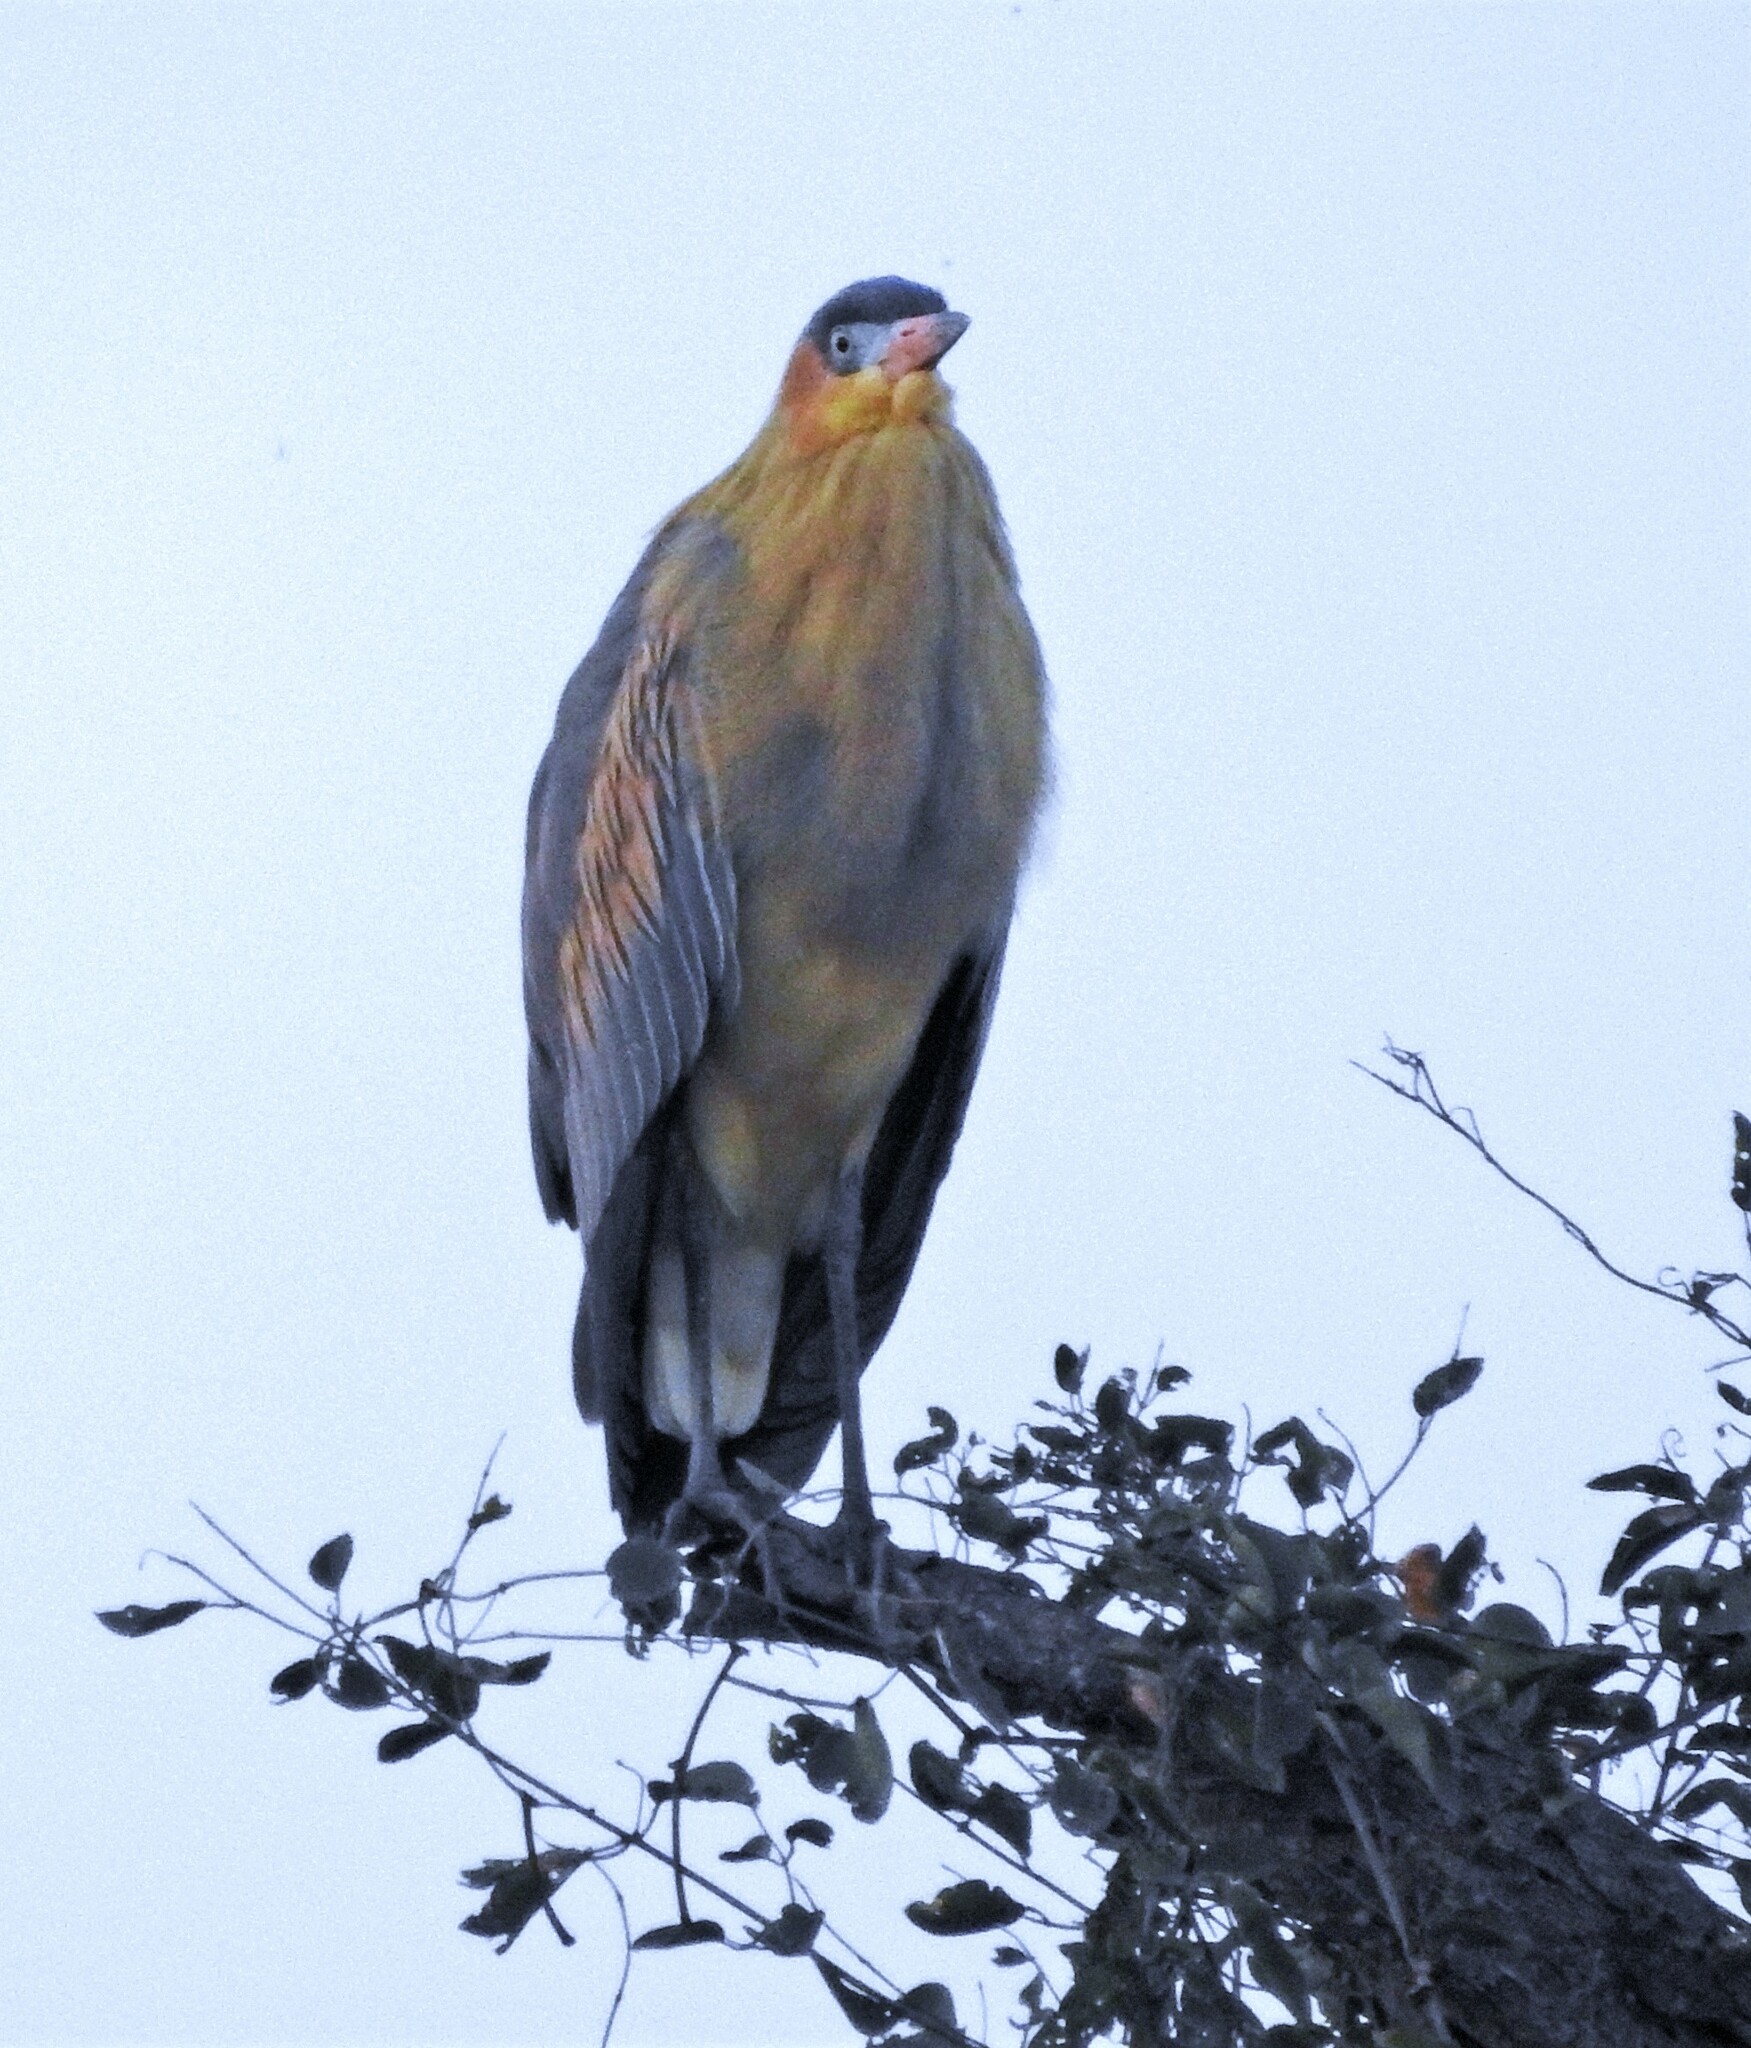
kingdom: Animalia
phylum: Chordata
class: Aves
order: Pelecaniformes
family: Ardeidae
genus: Syrigma
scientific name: Syrigma sibilatrix
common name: Whistling heron
